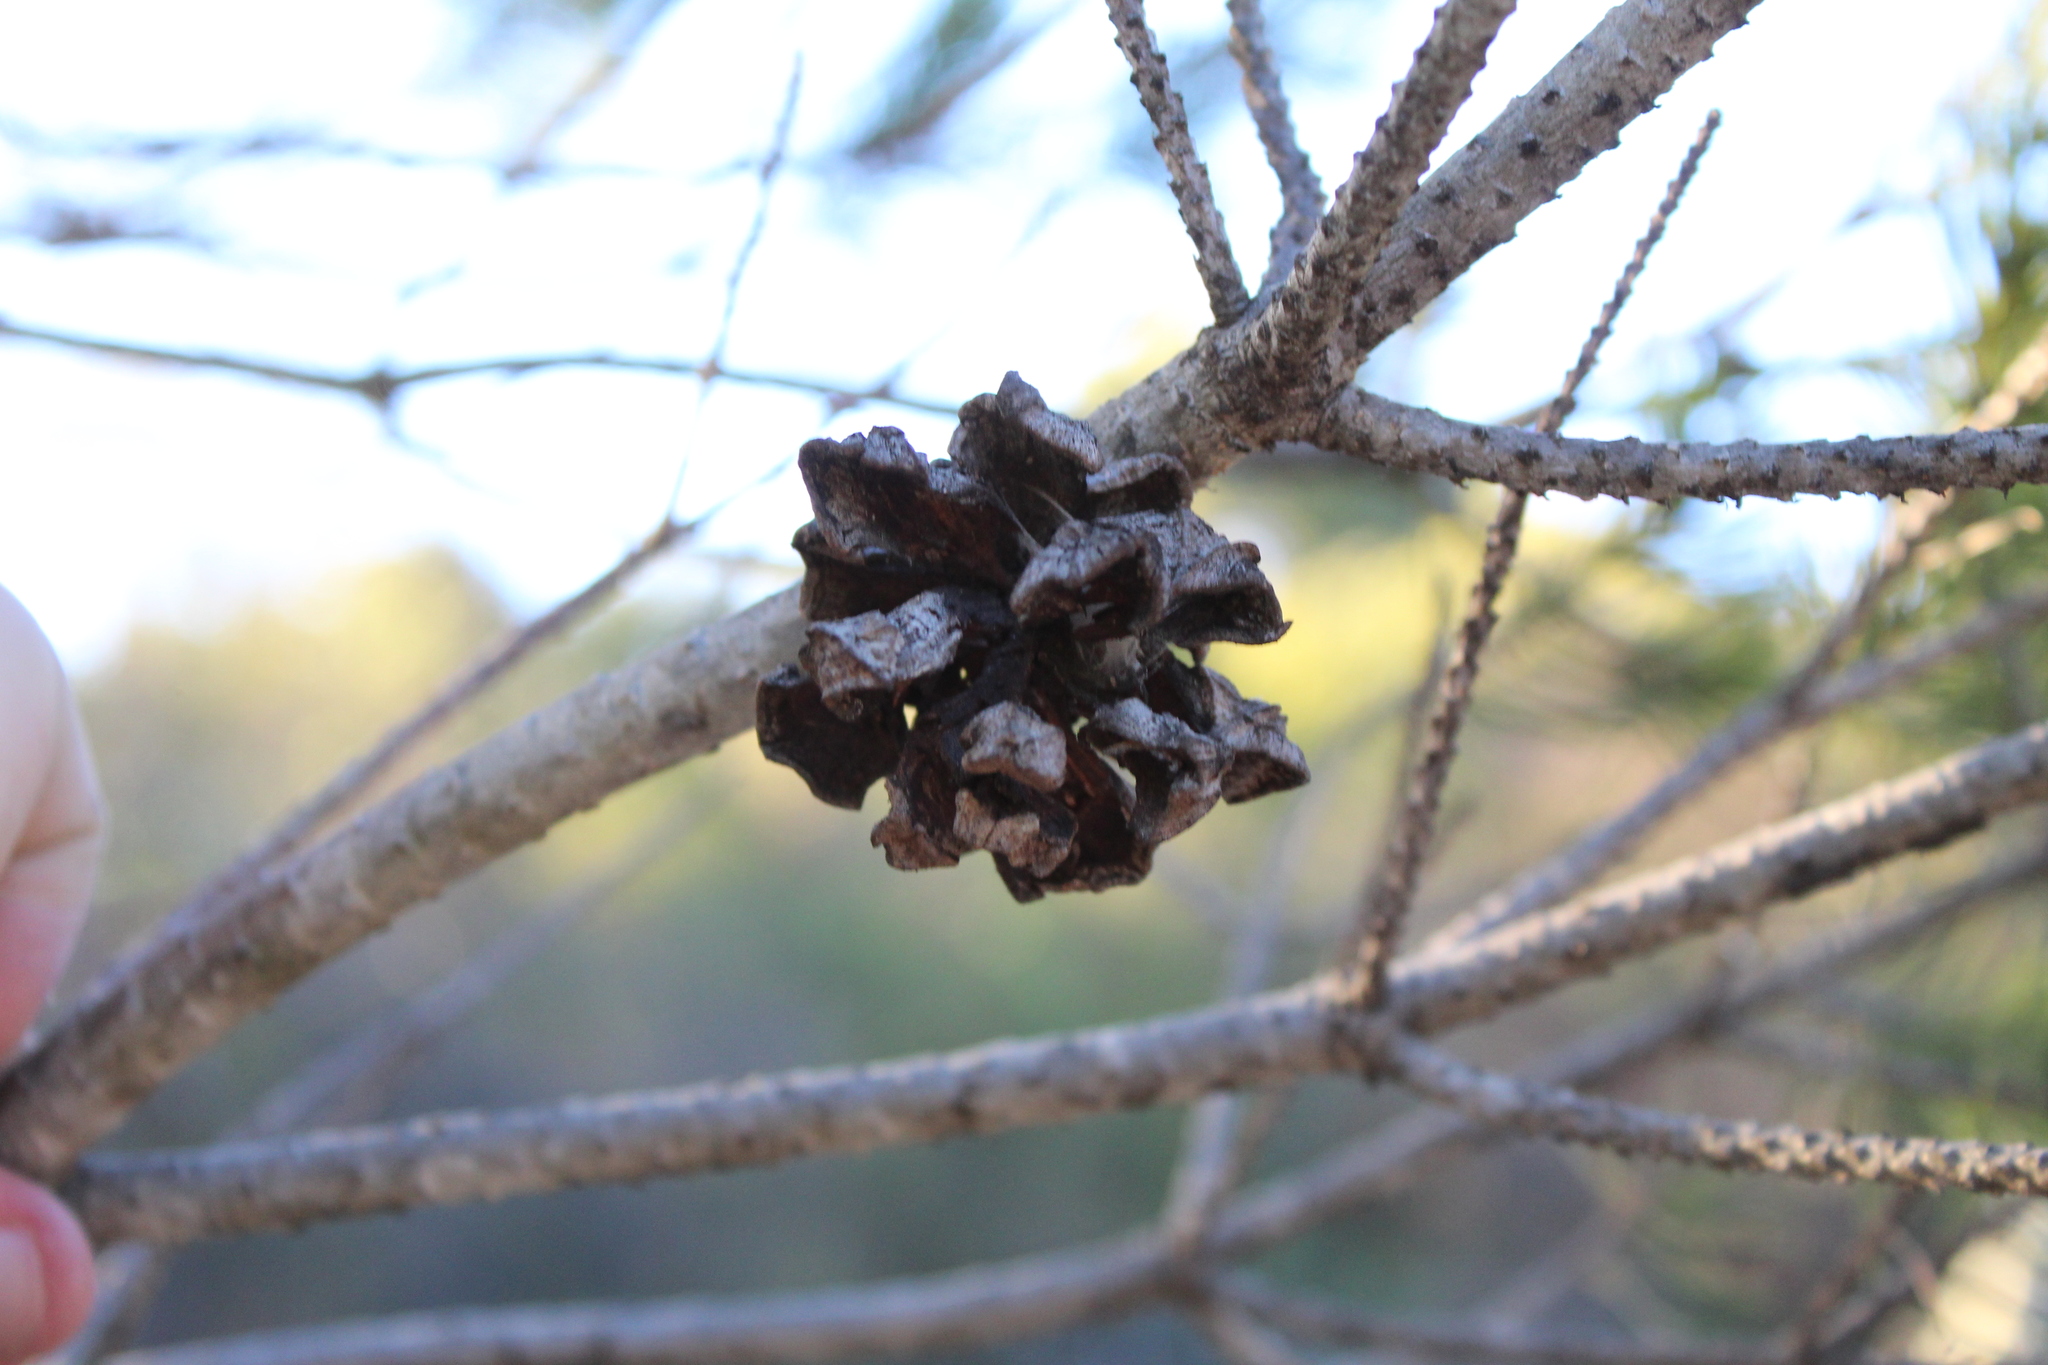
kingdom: Plantae
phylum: Tracheophyta
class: Pinopsida
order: Pinales
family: Pinaceae
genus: Pinus
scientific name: Pinus cembroides
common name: Mexican nut pine
